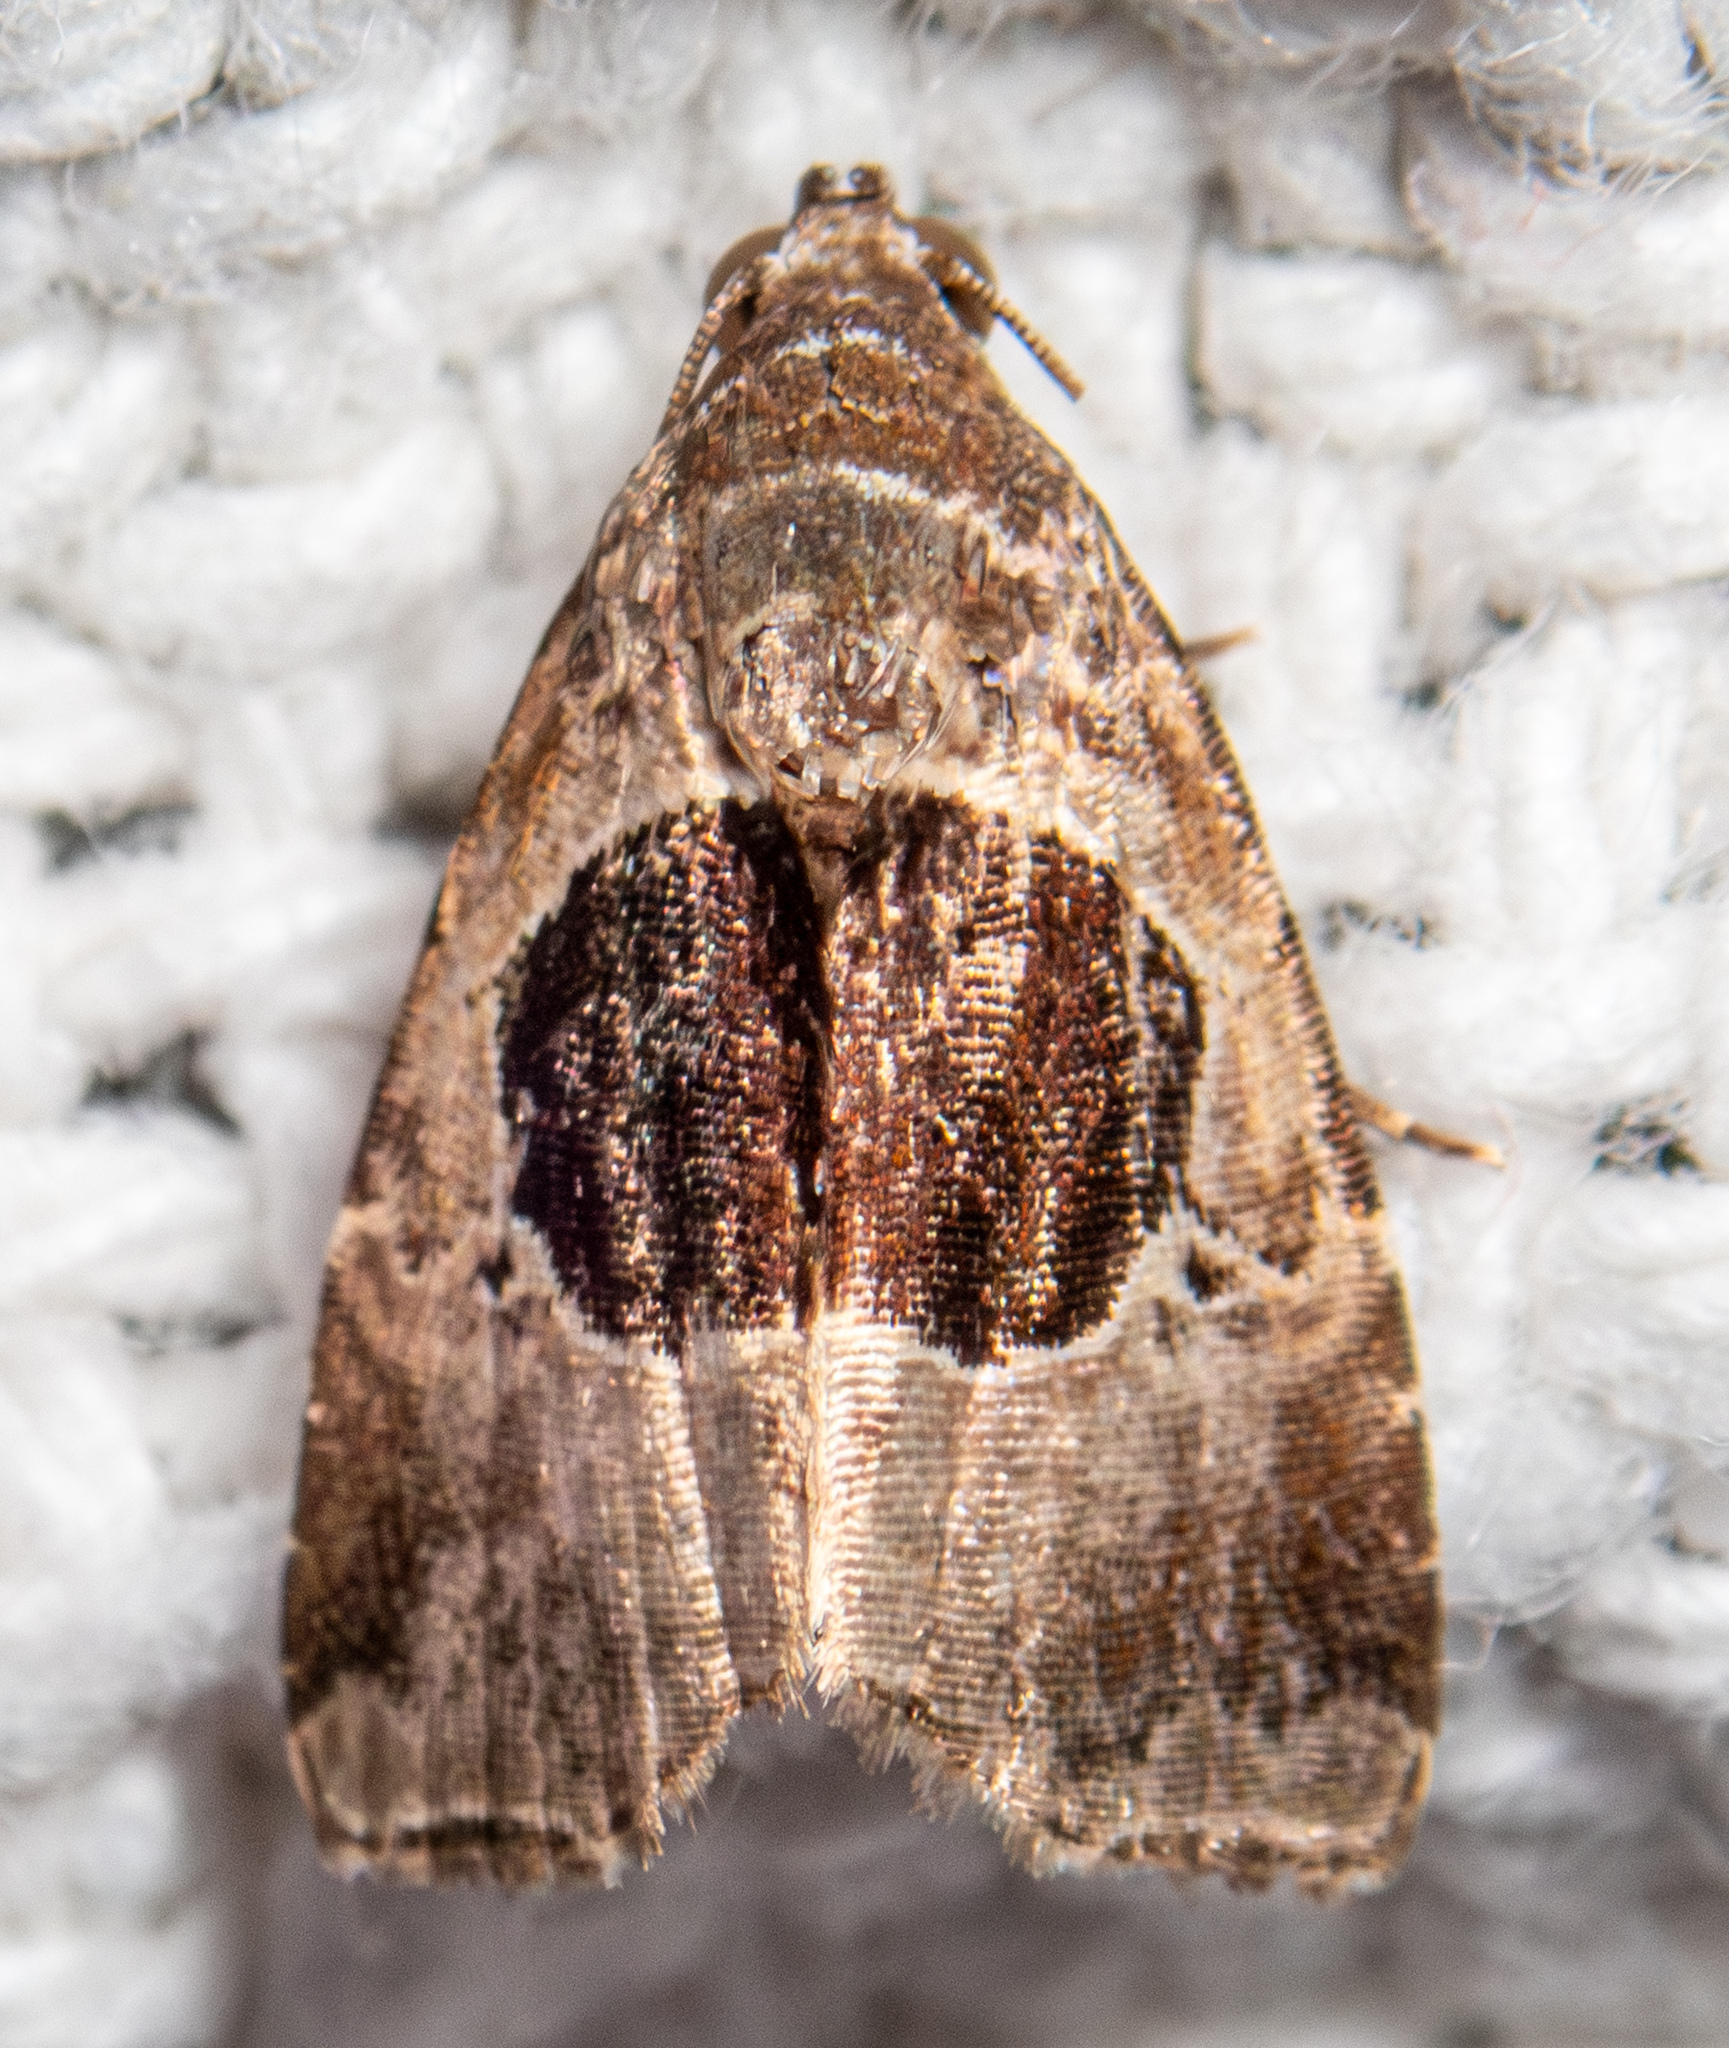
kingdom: Animalia
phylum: Arthropoda
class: Insecta
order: Lepidoptera
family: Noctuidae
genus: Tripudia
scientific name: Tripudia
